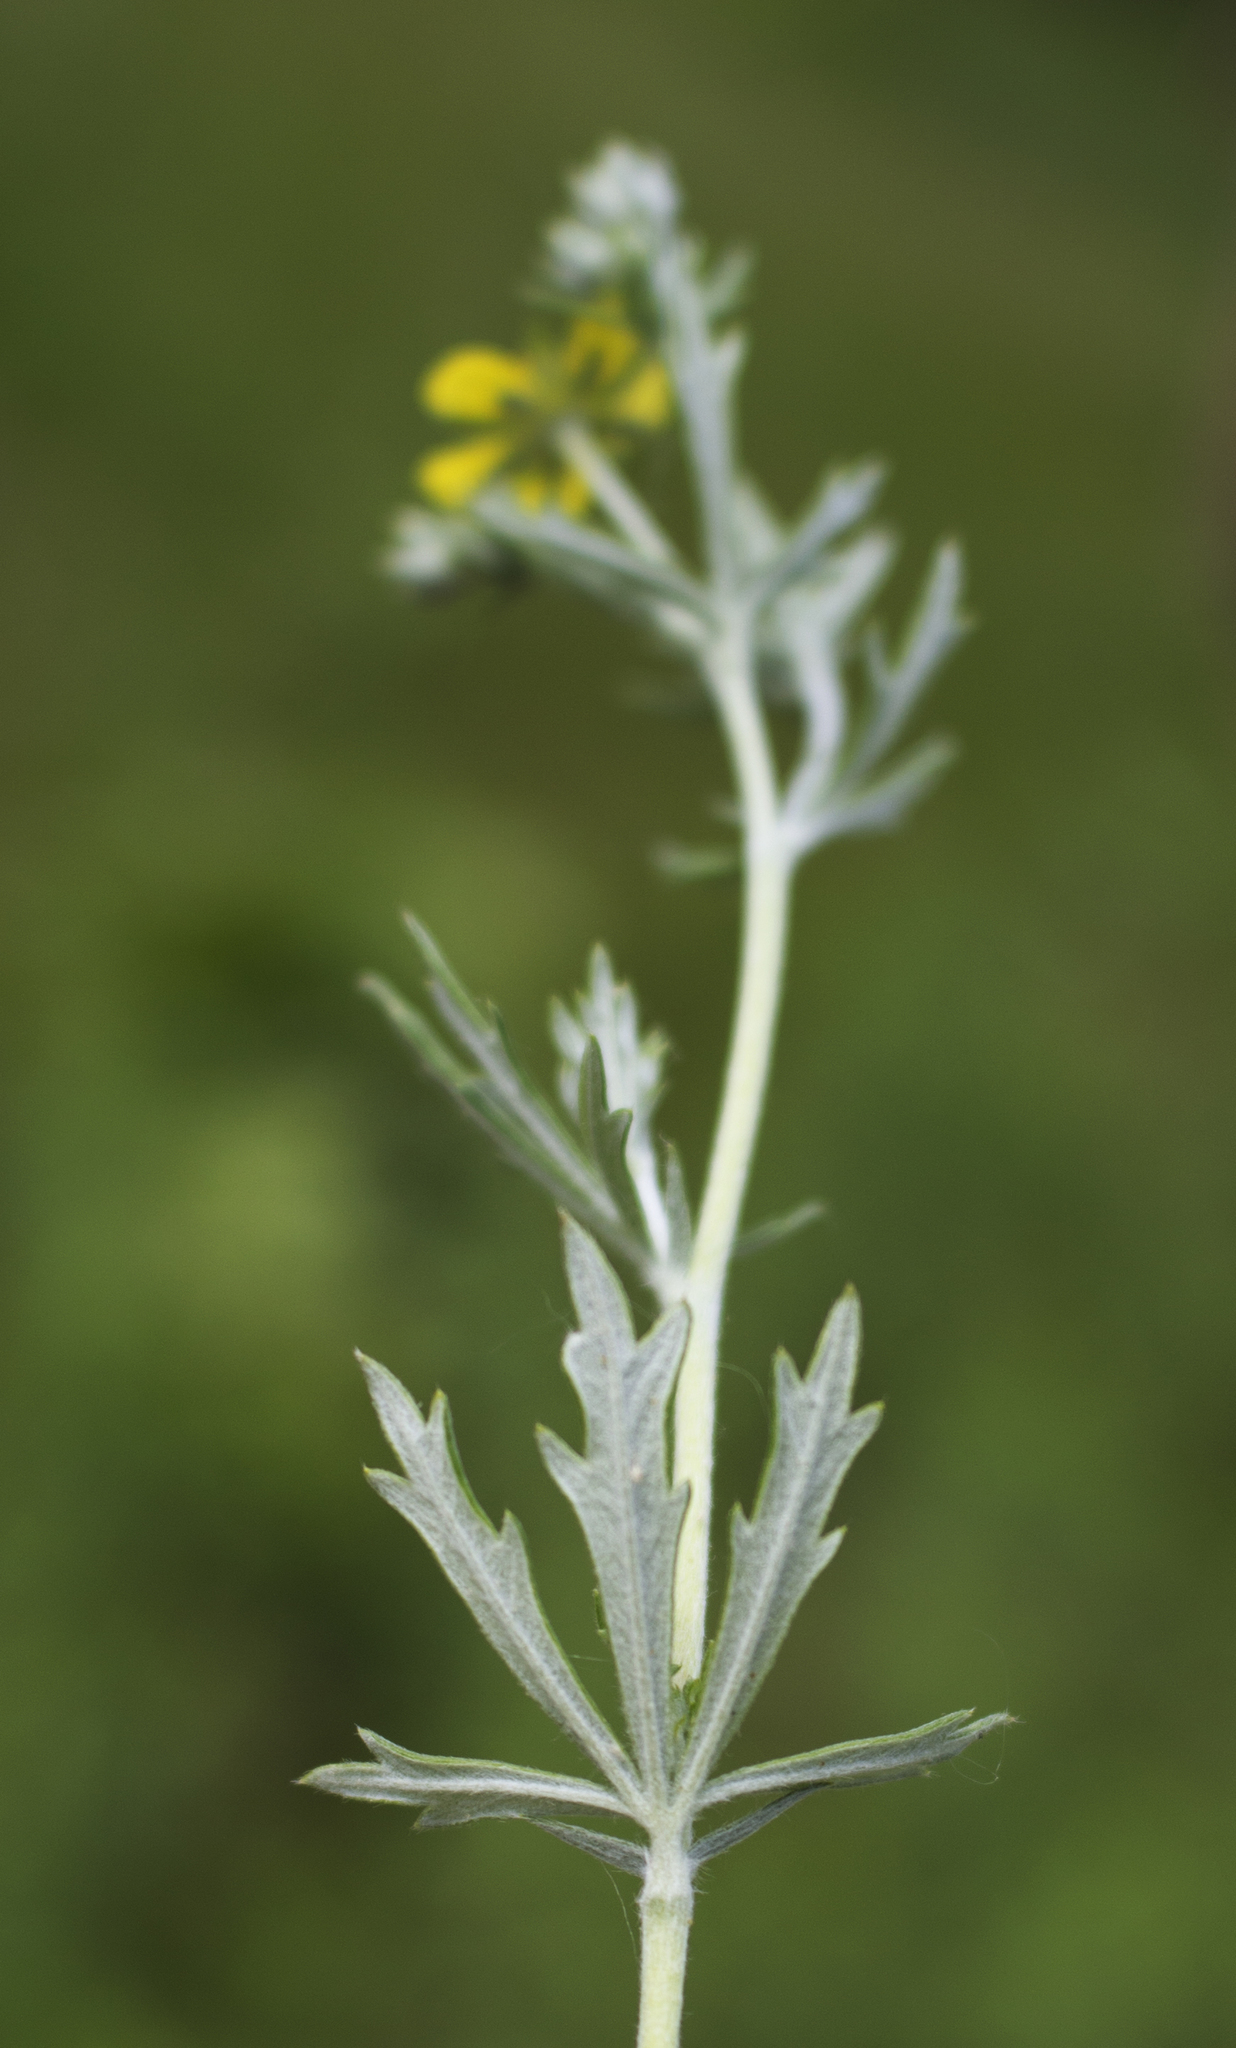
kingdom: Plantae
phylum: Tracheophyta
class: Magnoliopsida
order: Rosales
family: Rosaceae
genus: Potentilla
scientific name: Potentilla argentea
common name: Hoary cinquefoil
